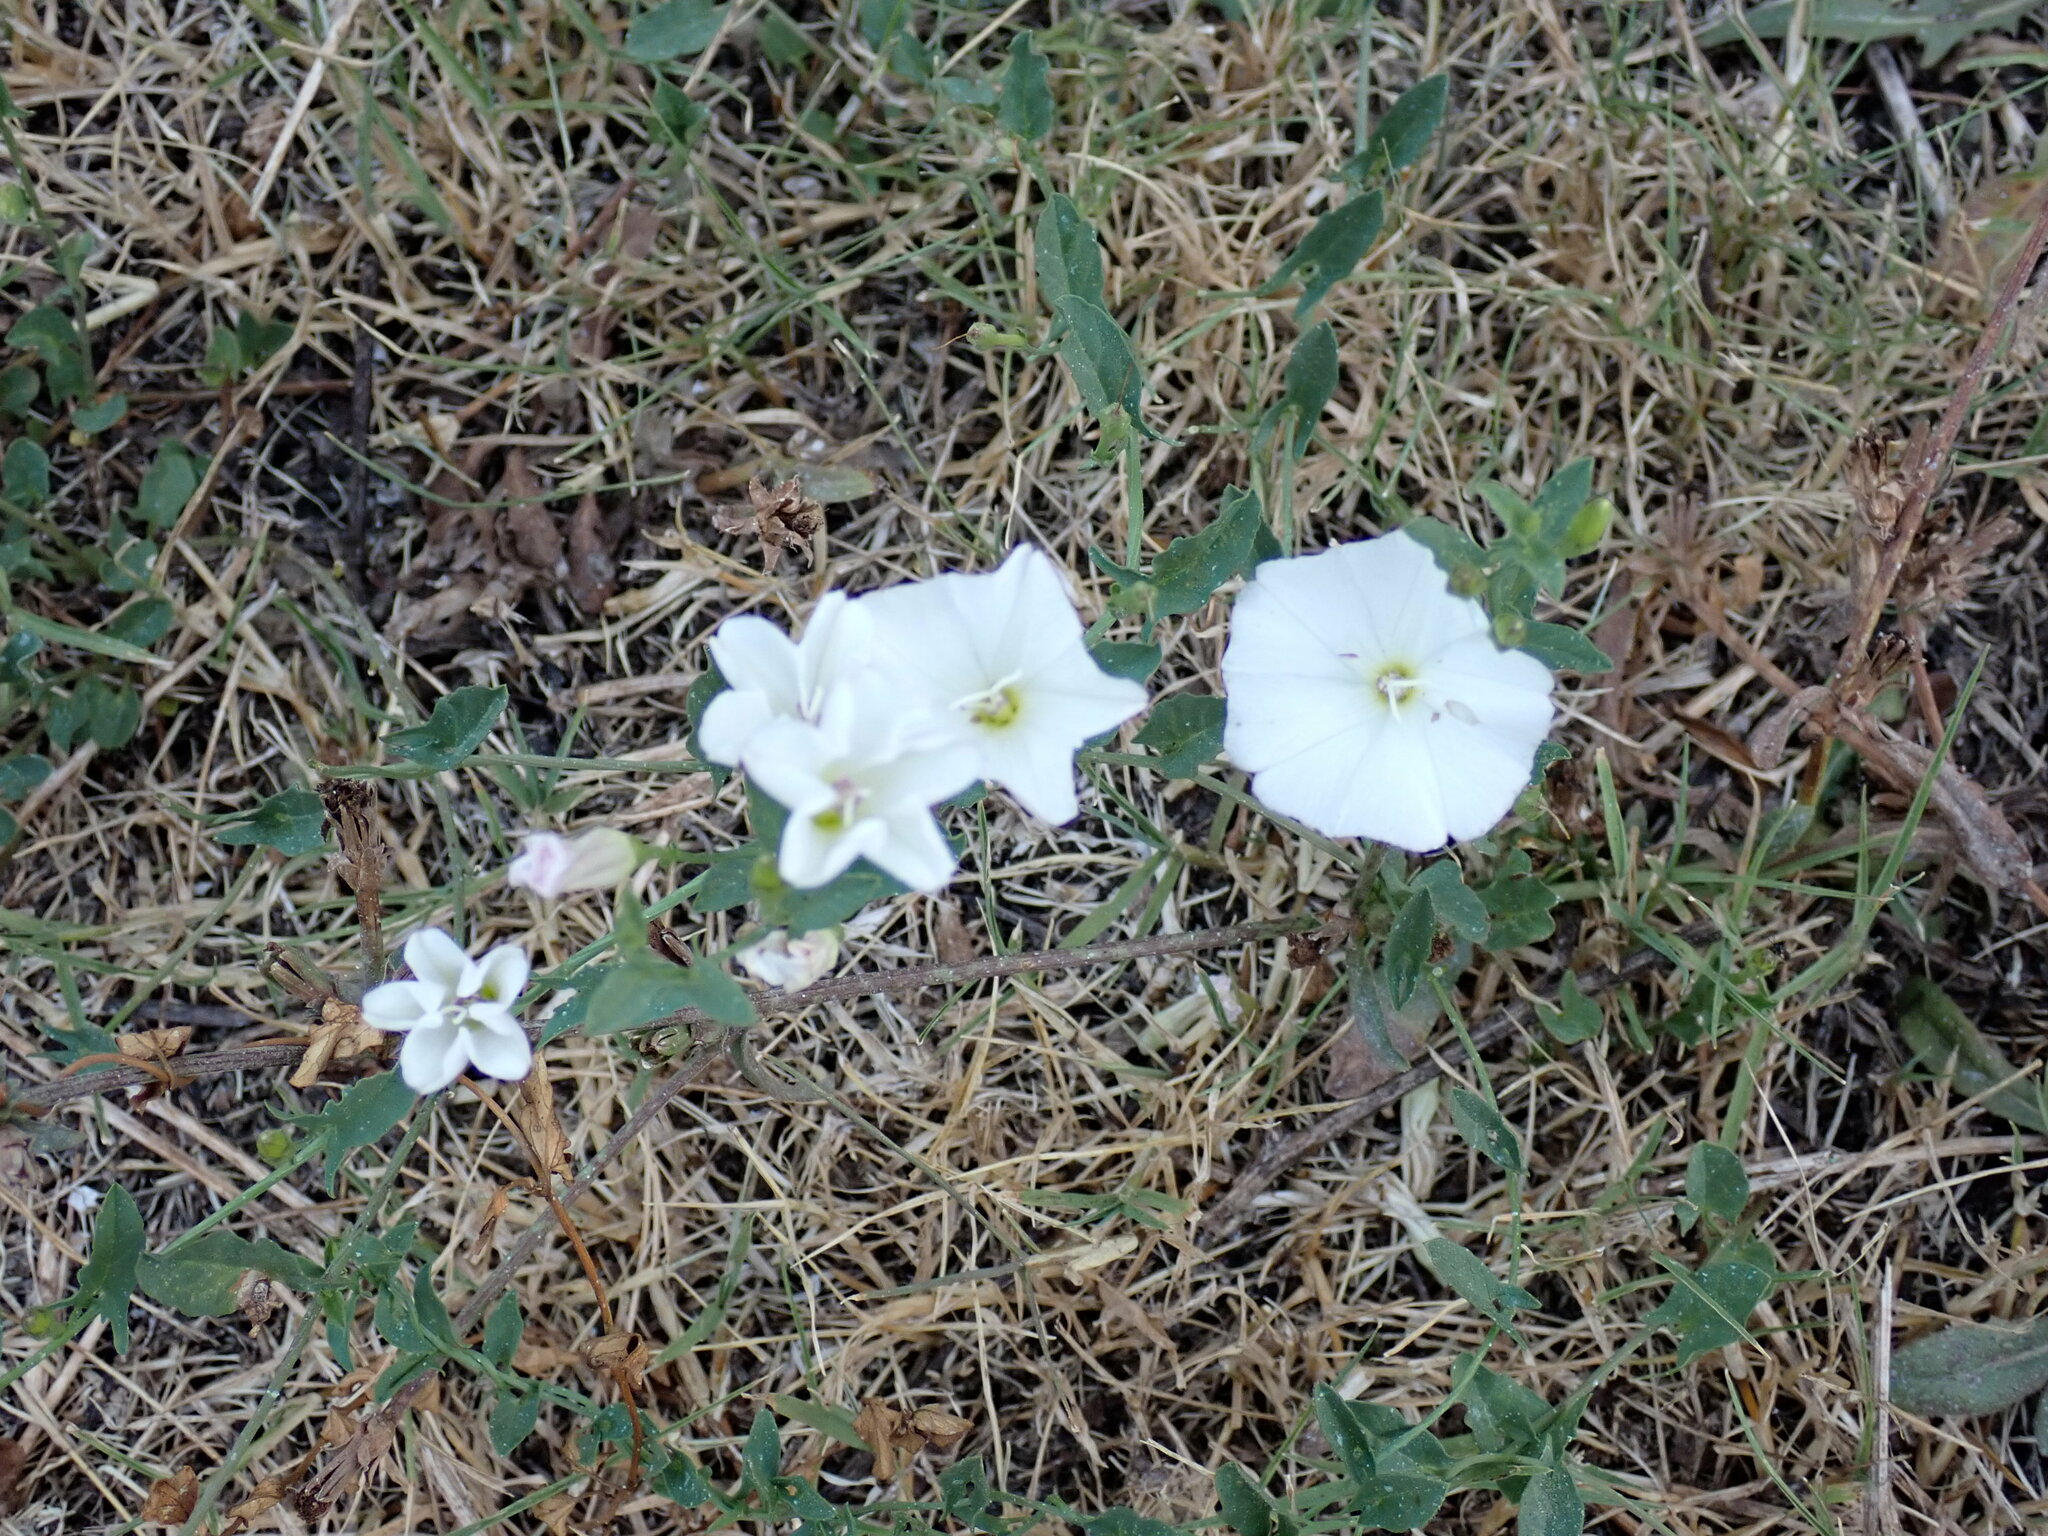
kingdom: Plantae
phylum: Tracheophyta
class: Magnoliopsida
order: Solanales
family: Convolvulaceae
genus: Convolvulus
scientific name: Convolvulus arvensis
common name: Field bindweed
